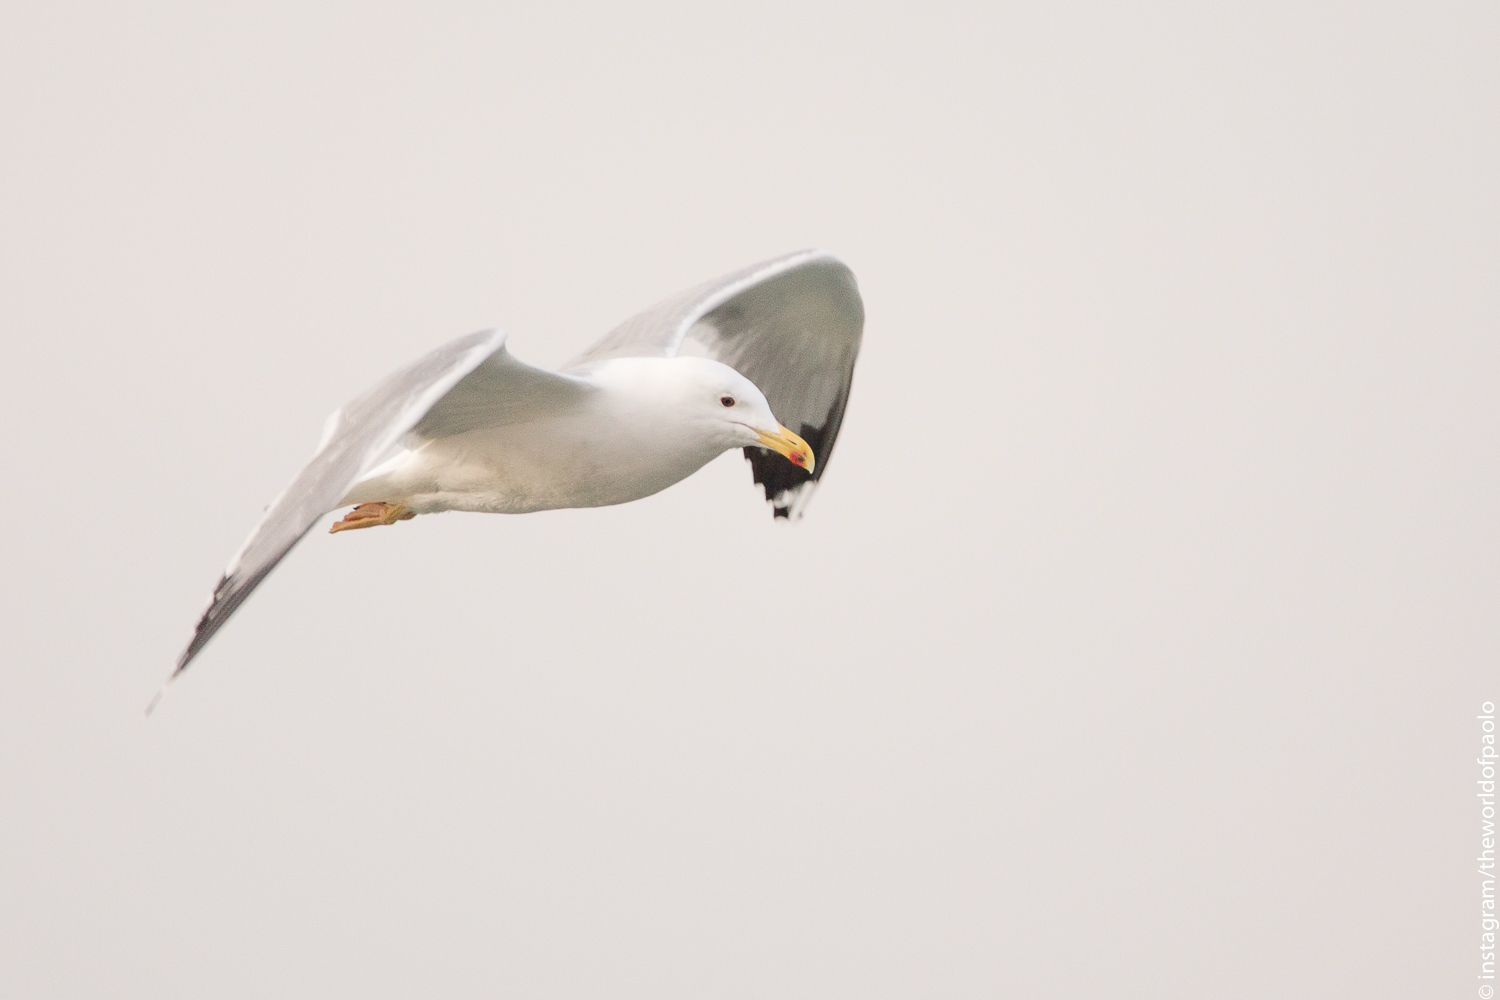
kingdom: Animalia
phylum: Chordata
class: Aves
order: Charadriiformes
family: Laridae
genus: Larus
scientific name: Larus michahellis
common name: Yellow-legged gull
